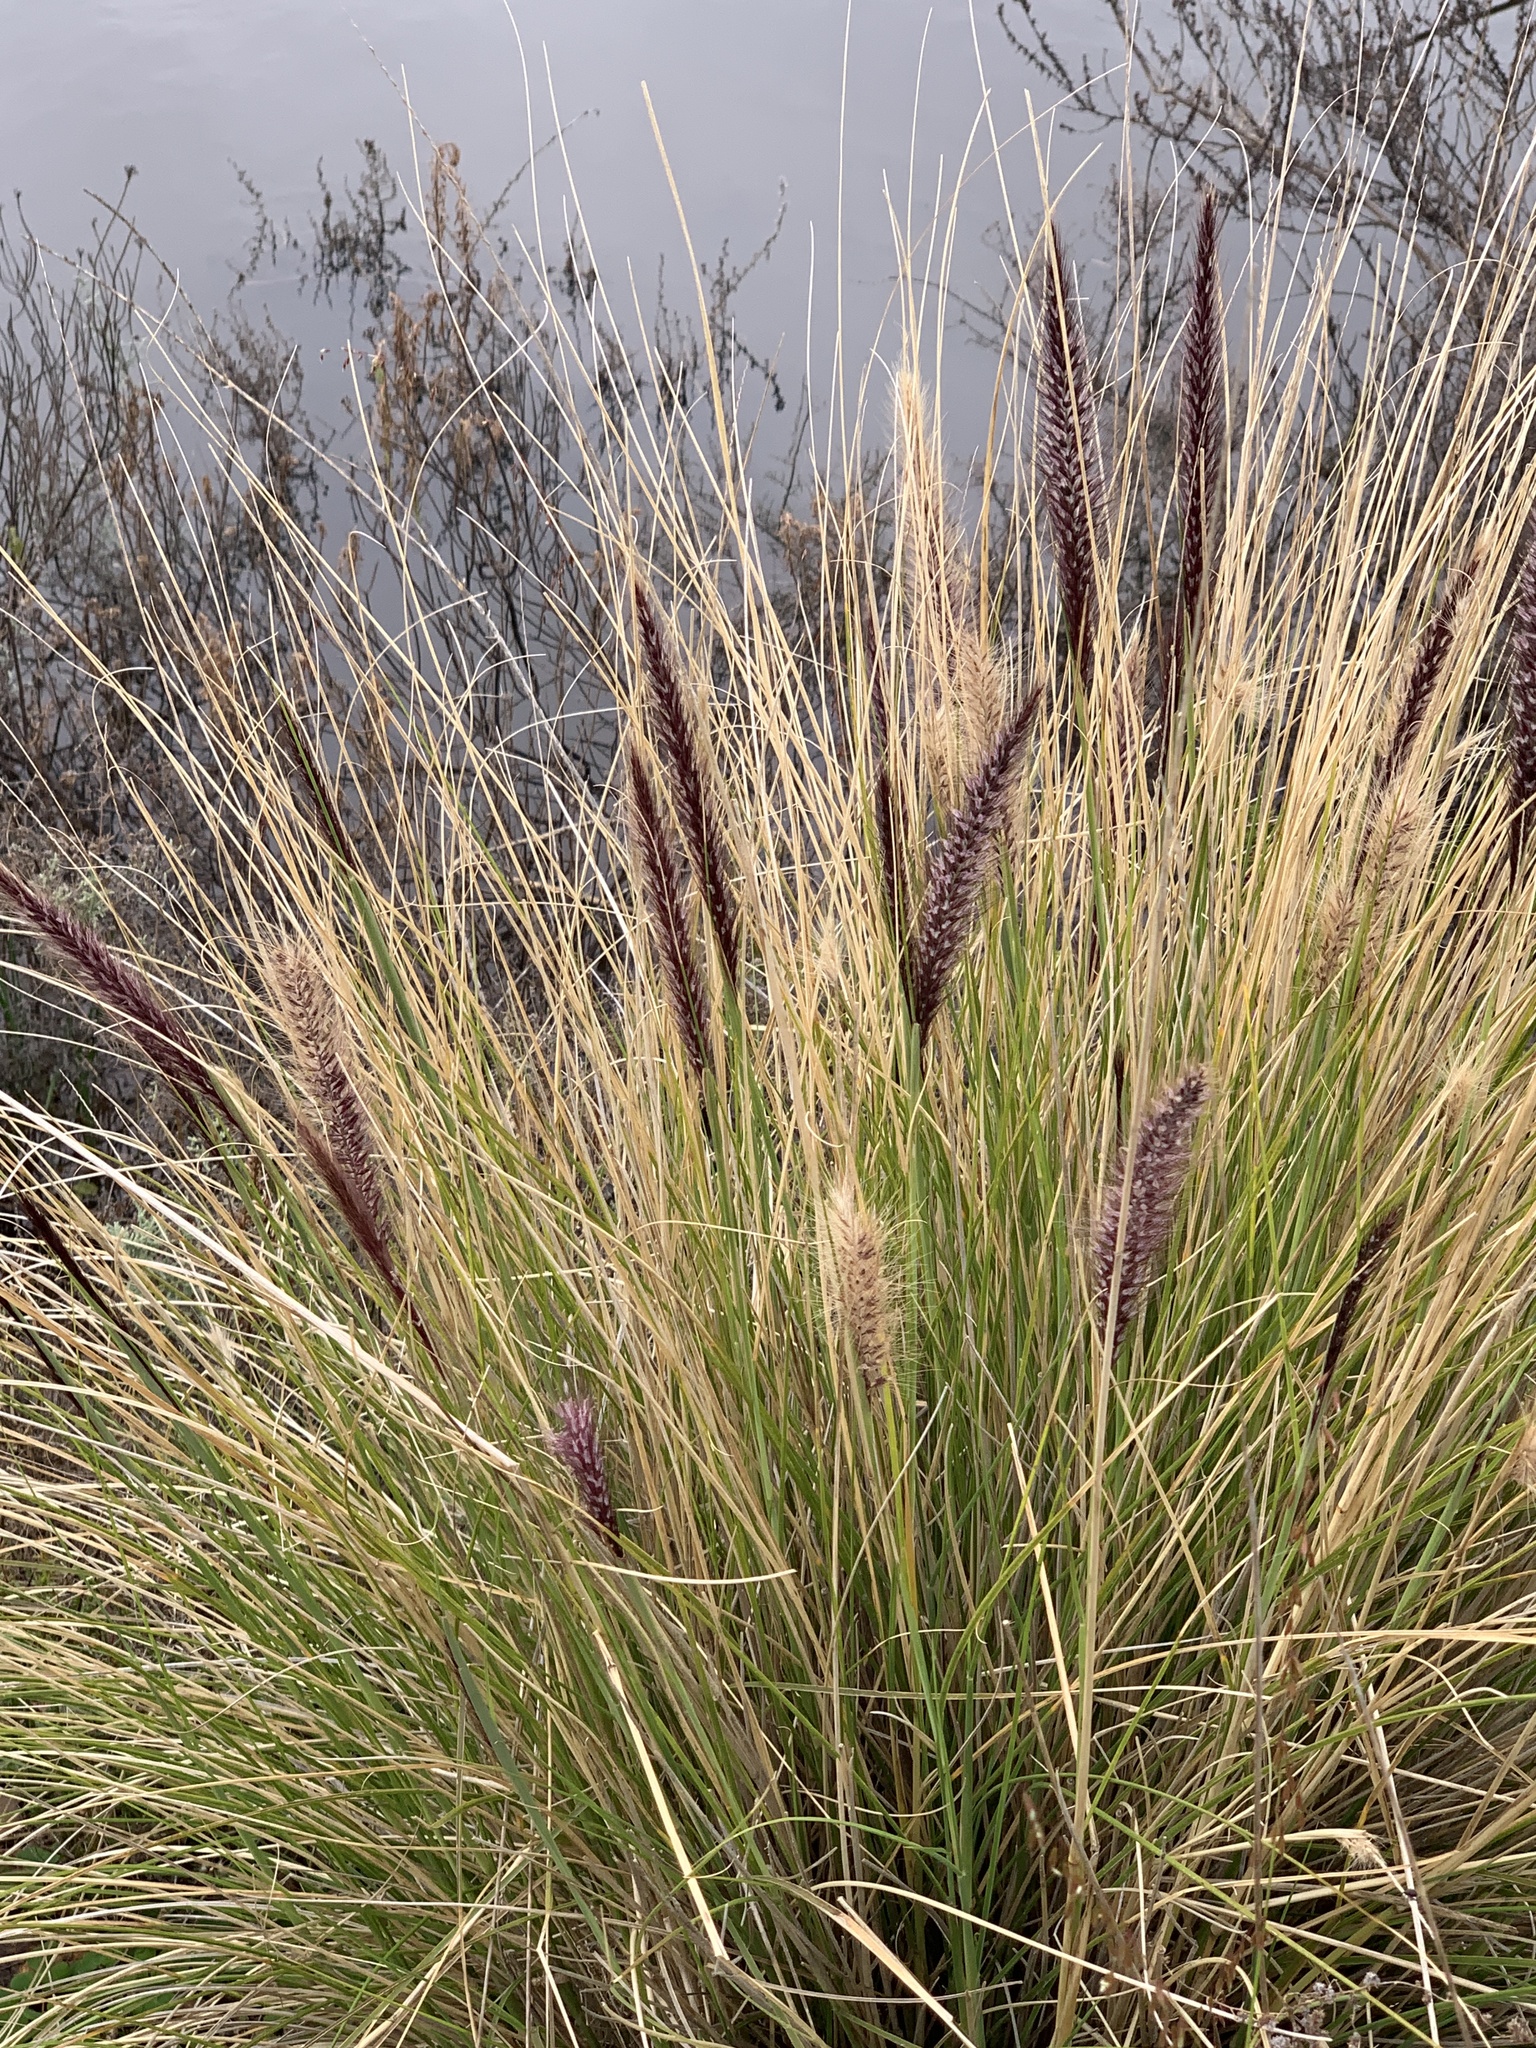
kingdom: Plantae
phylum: Tracheophyta
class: Liliopsida
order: Poales
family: Poaceae
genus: Cenchrus
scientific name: Cenchrus setaceus
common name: Crimson fountaingrass
